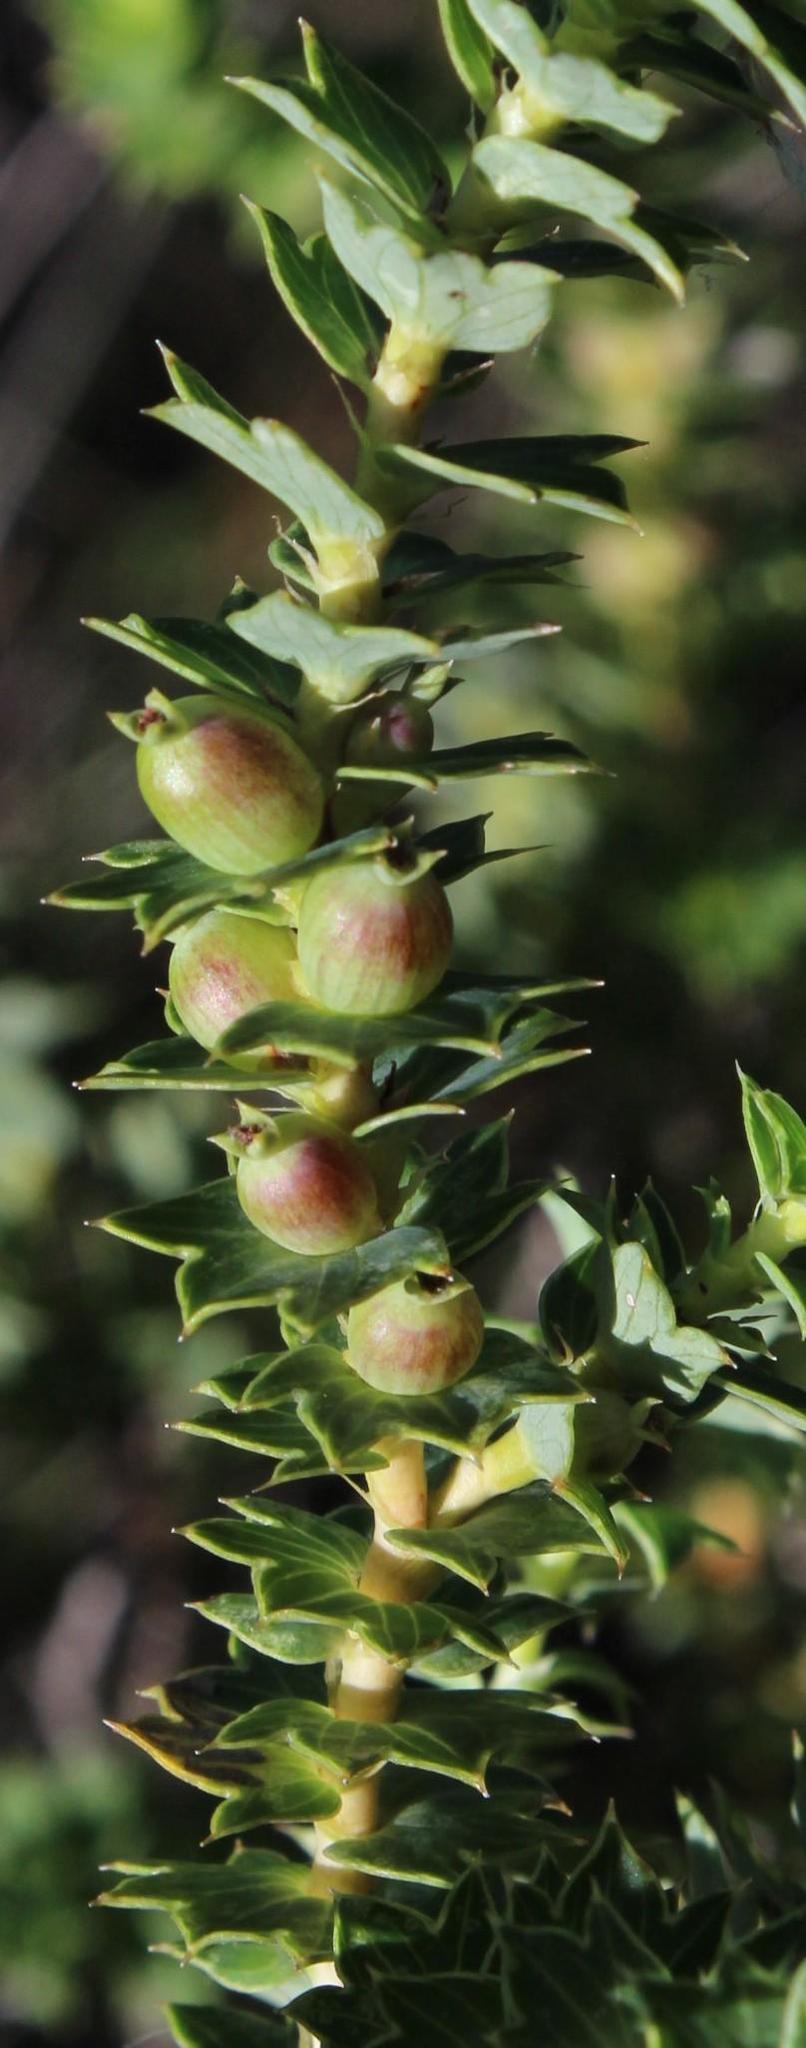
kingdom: Plantae
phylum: Tracheophyta
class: Magnoliopsida
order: Rosales
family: Rosaceae
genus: Cliffortia
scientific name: Cliffortia schlechteri
